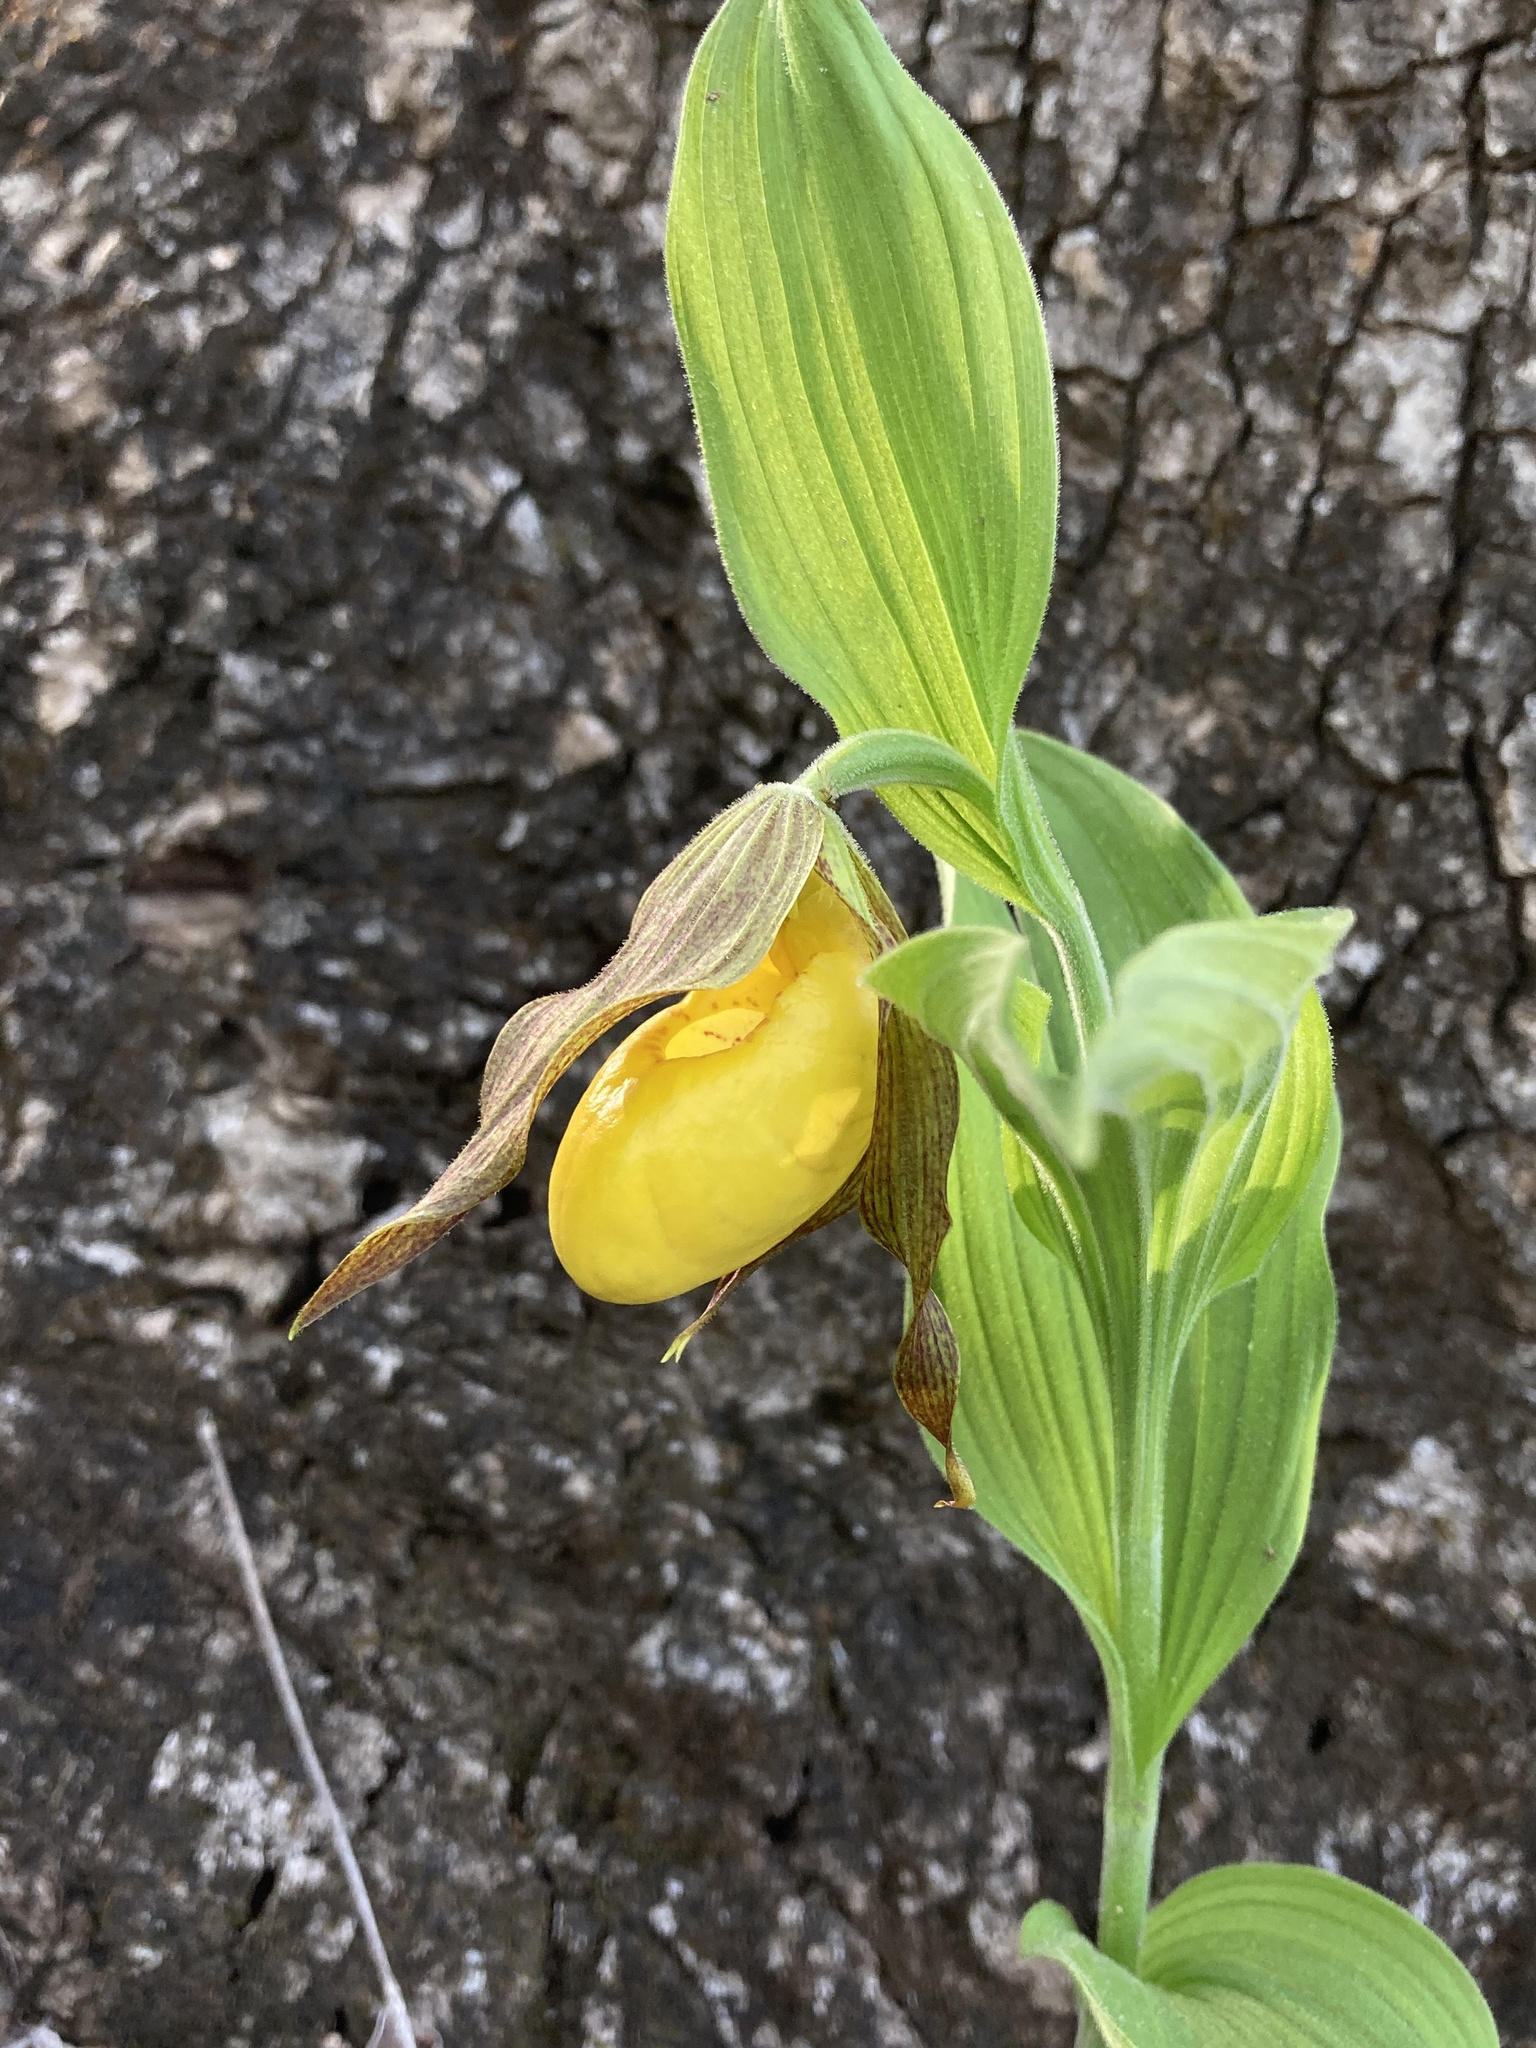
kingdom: Plantae
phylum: Tracheophyta
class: Liliopsida
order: Asparagales
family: Orchidaceae
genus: Cypripedium
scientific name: Cypripedium parviflorum
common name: American yellow lady's-slipper
